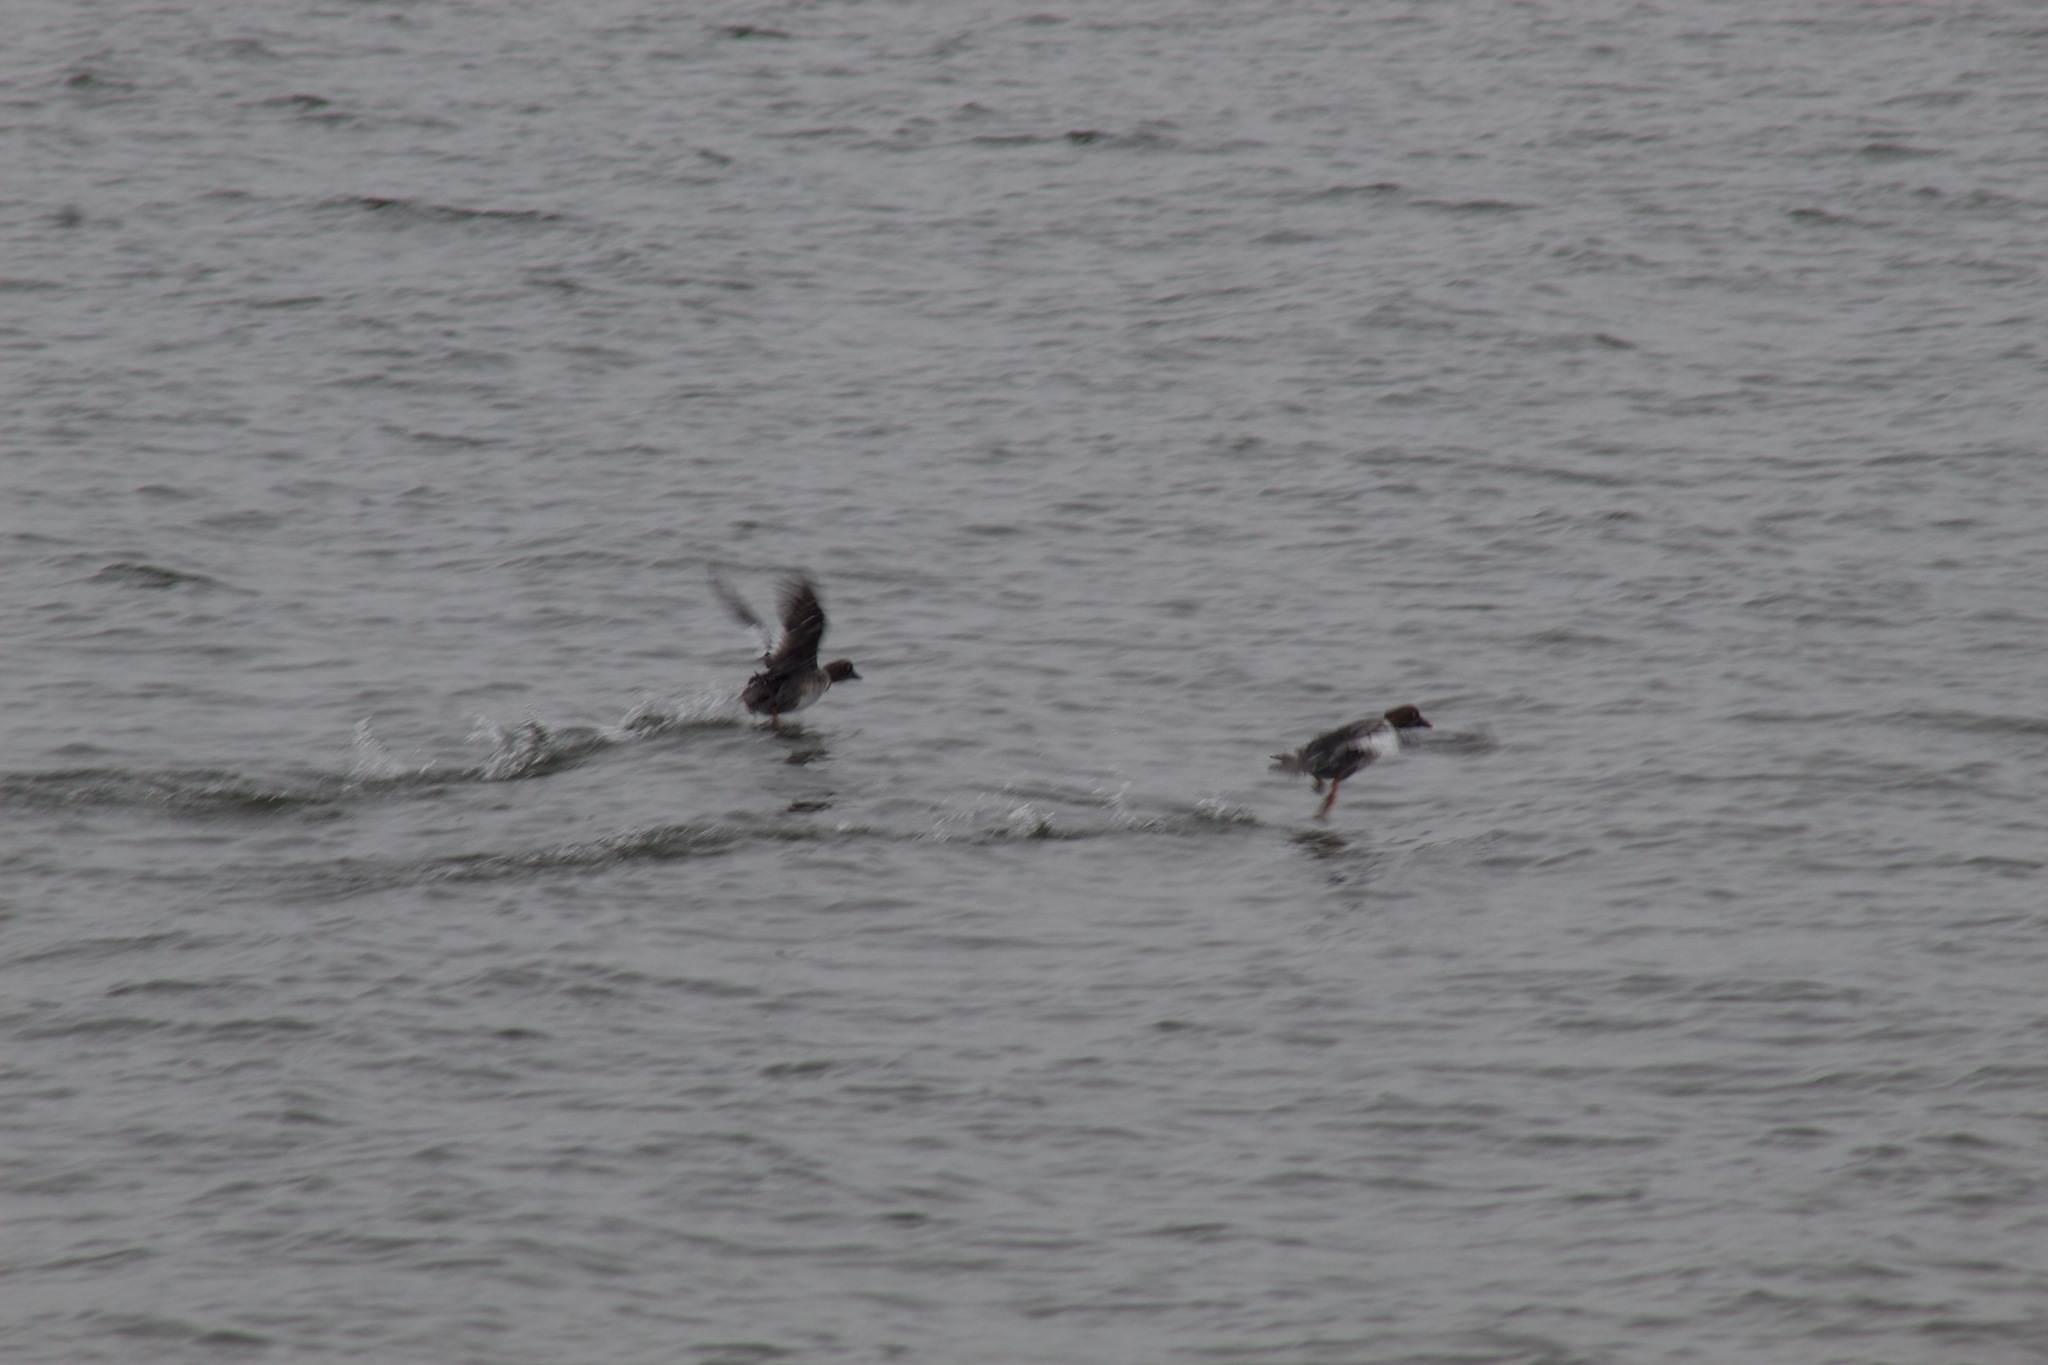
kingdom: Animalia
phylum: Chordata
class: Aves
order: Anseriformes
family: Anatidae
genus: Bucephala
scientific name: Bucephala clangula
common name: Common goldeneye
